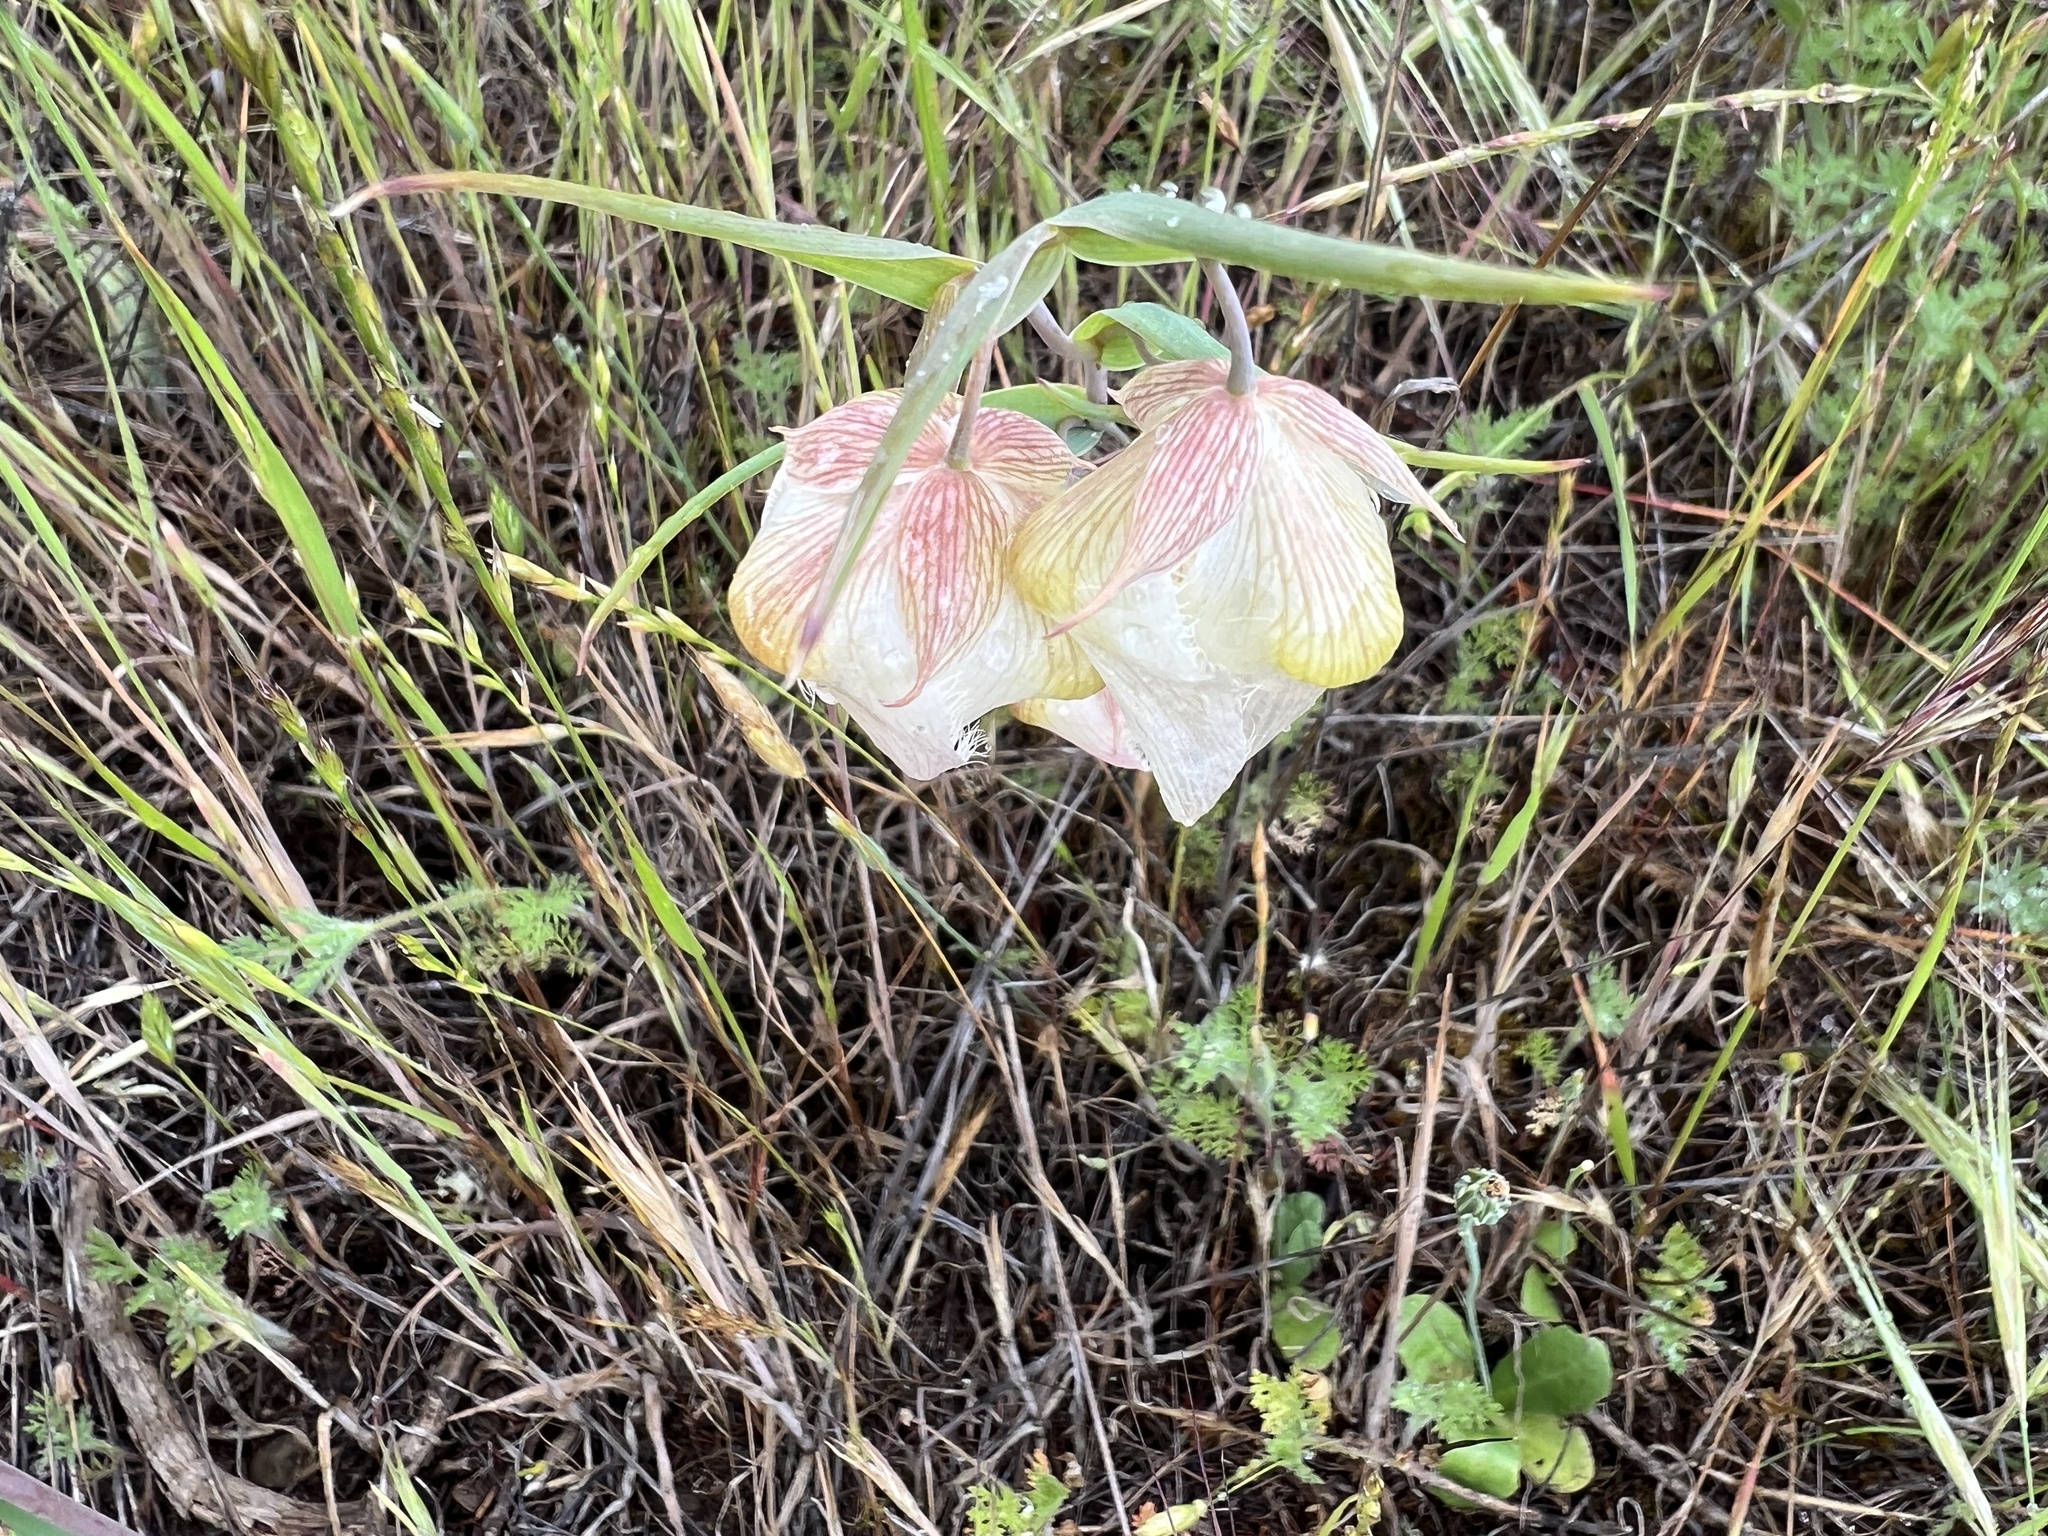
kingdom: Plantae
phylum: Tracheophyta
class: Liliopsida
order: Liliales
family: Liliaceae
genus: Calochortus
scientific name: Calochortus albus
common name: Fairy-lantern
